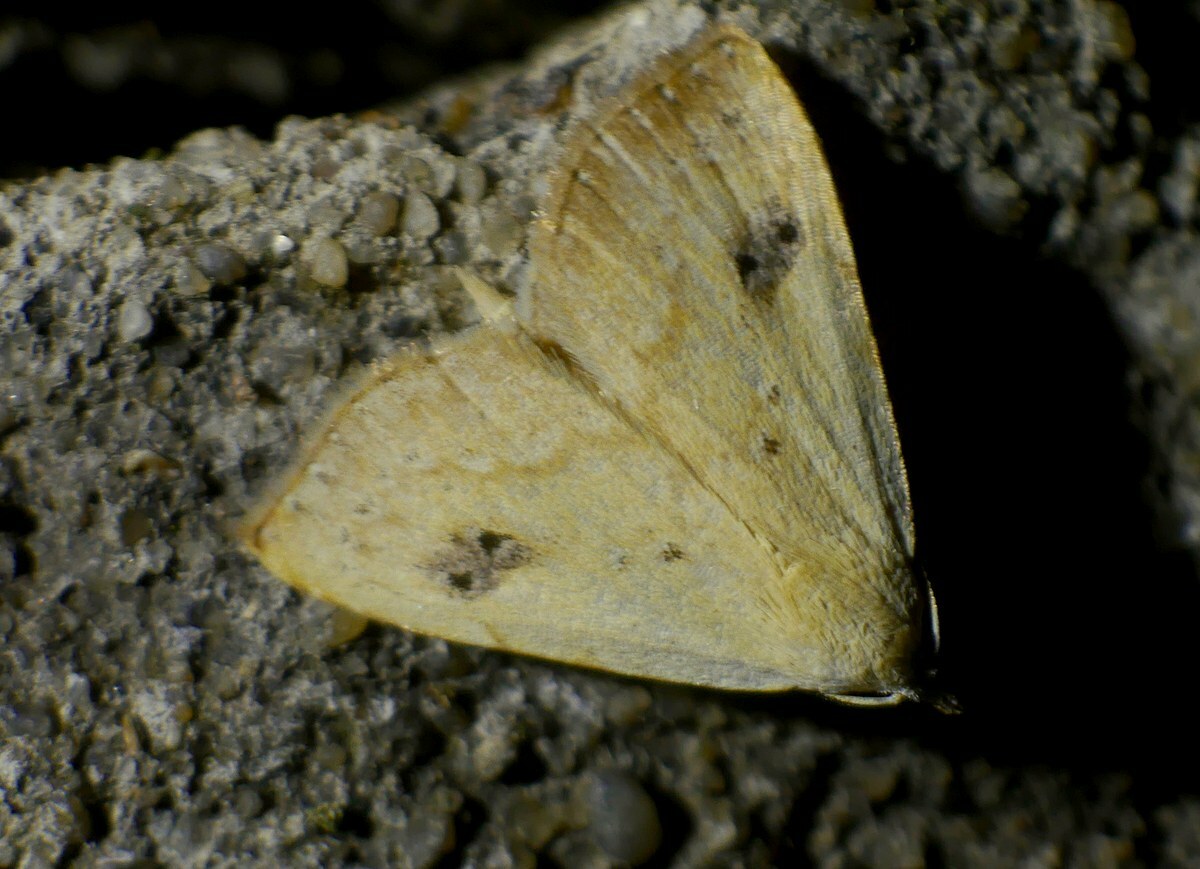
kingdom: Animalia
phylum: Arthropoda
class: Insecta
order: Lepidoptera
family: Erebidae
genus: Rivula
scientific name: Rivula sericealis
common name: Straw dot
